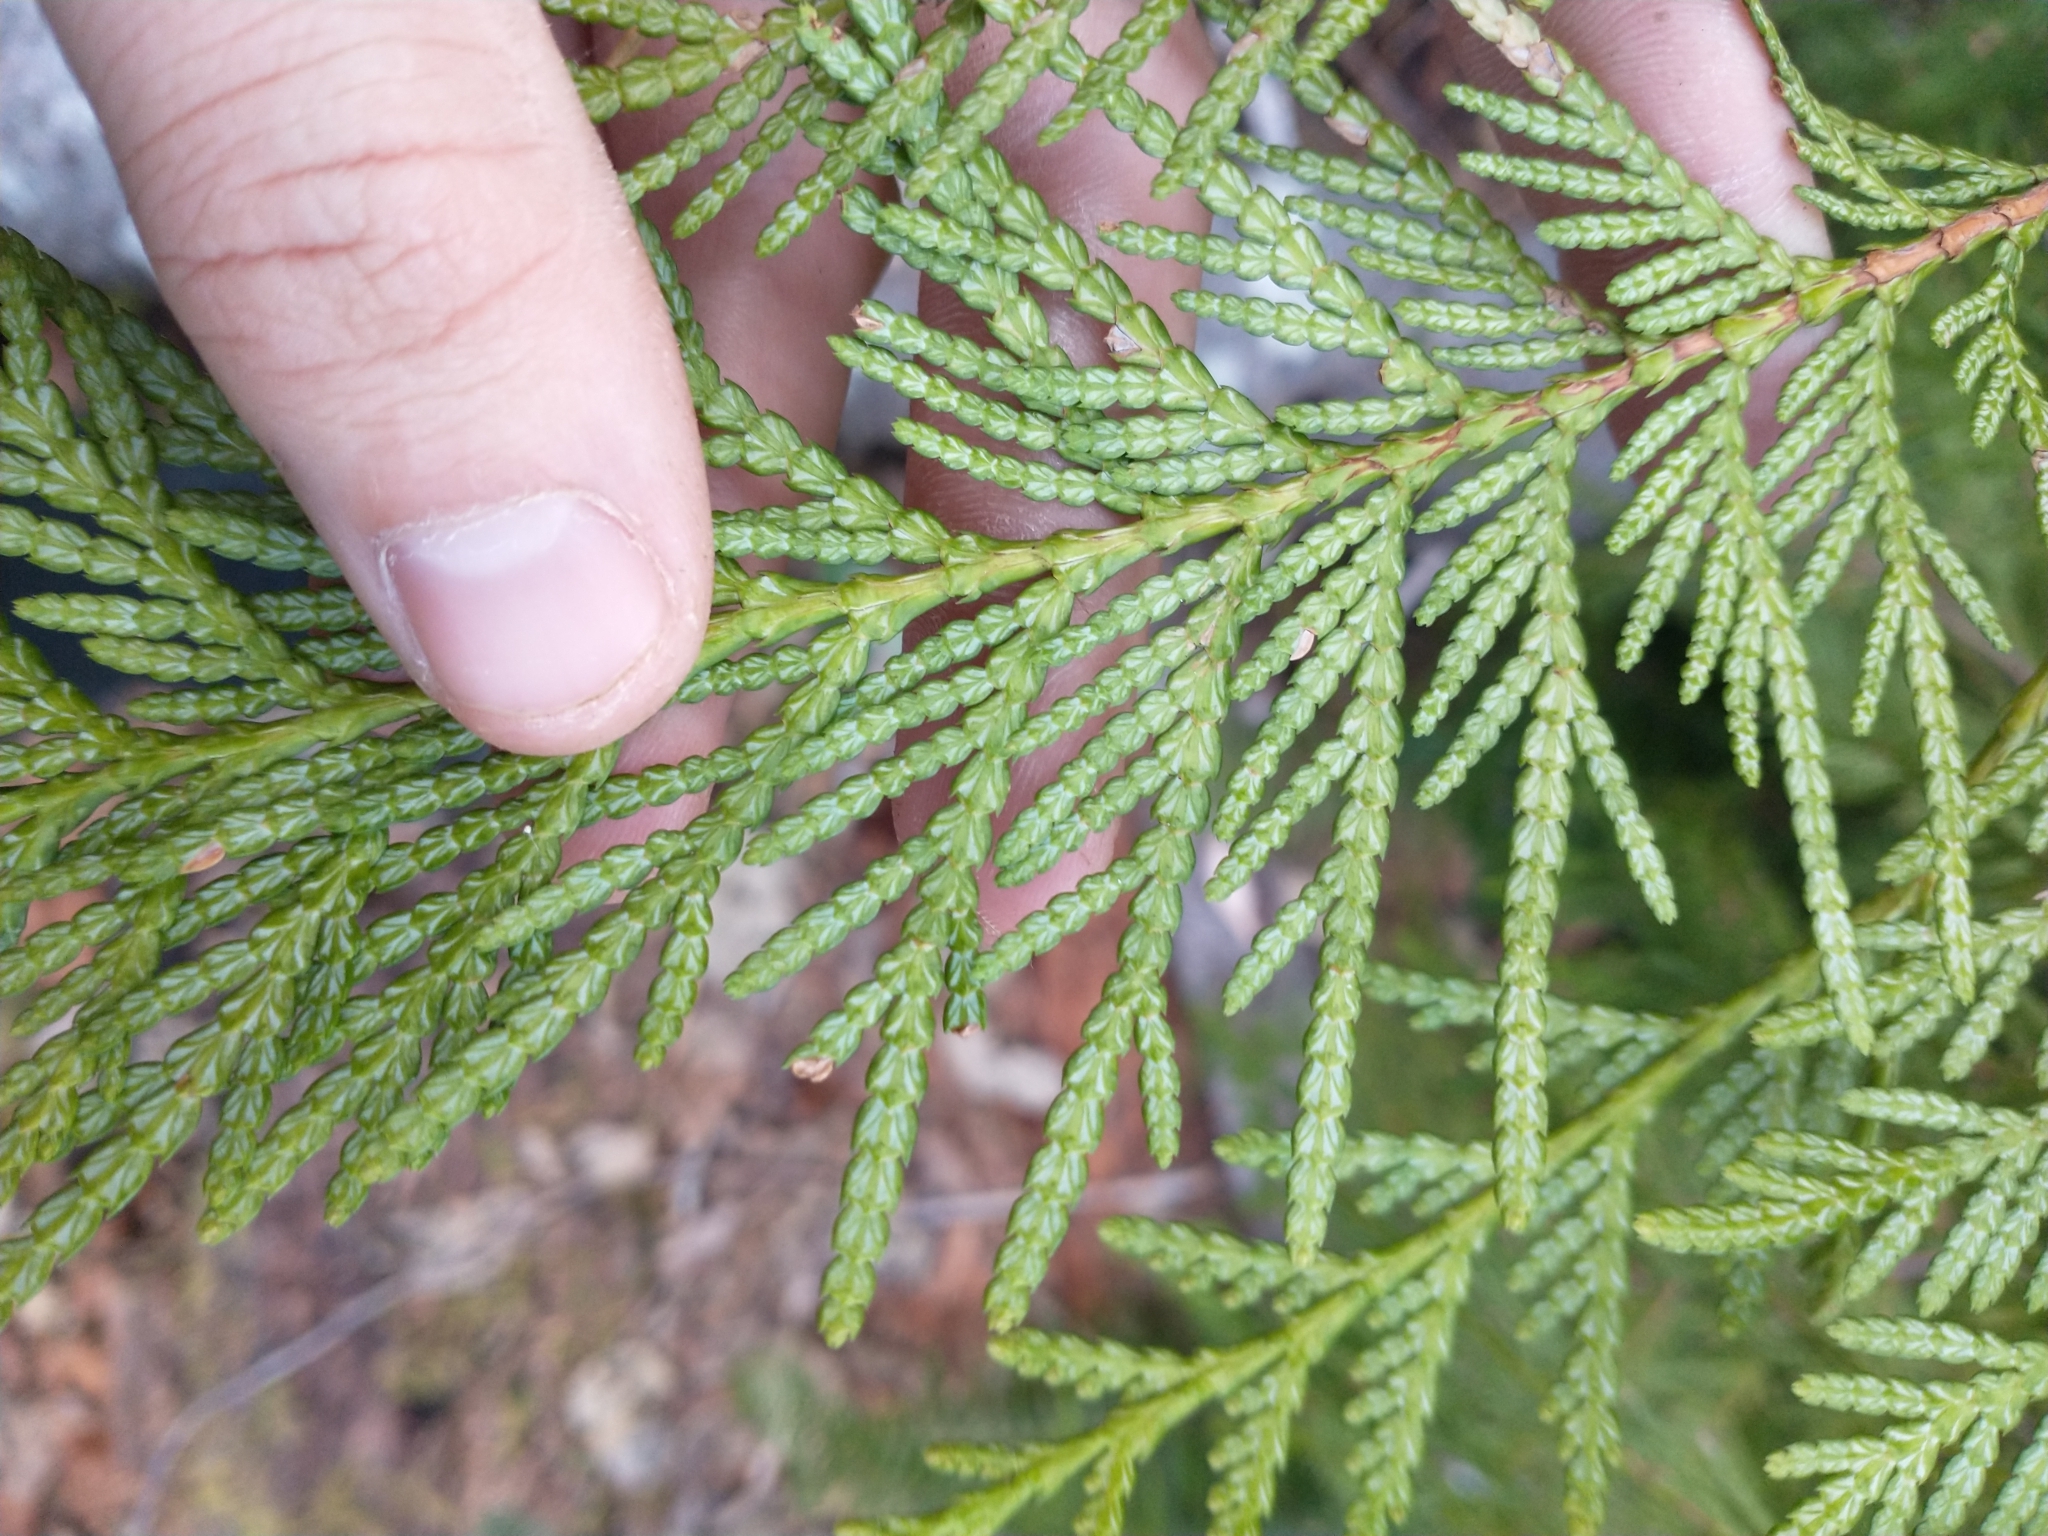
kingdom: Plantae
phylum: Tracheophyta
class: Pinopsida
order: Pinales
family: Cupressaceae
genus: Thuja
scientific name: Thuja plicata
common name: Western red-cedar
